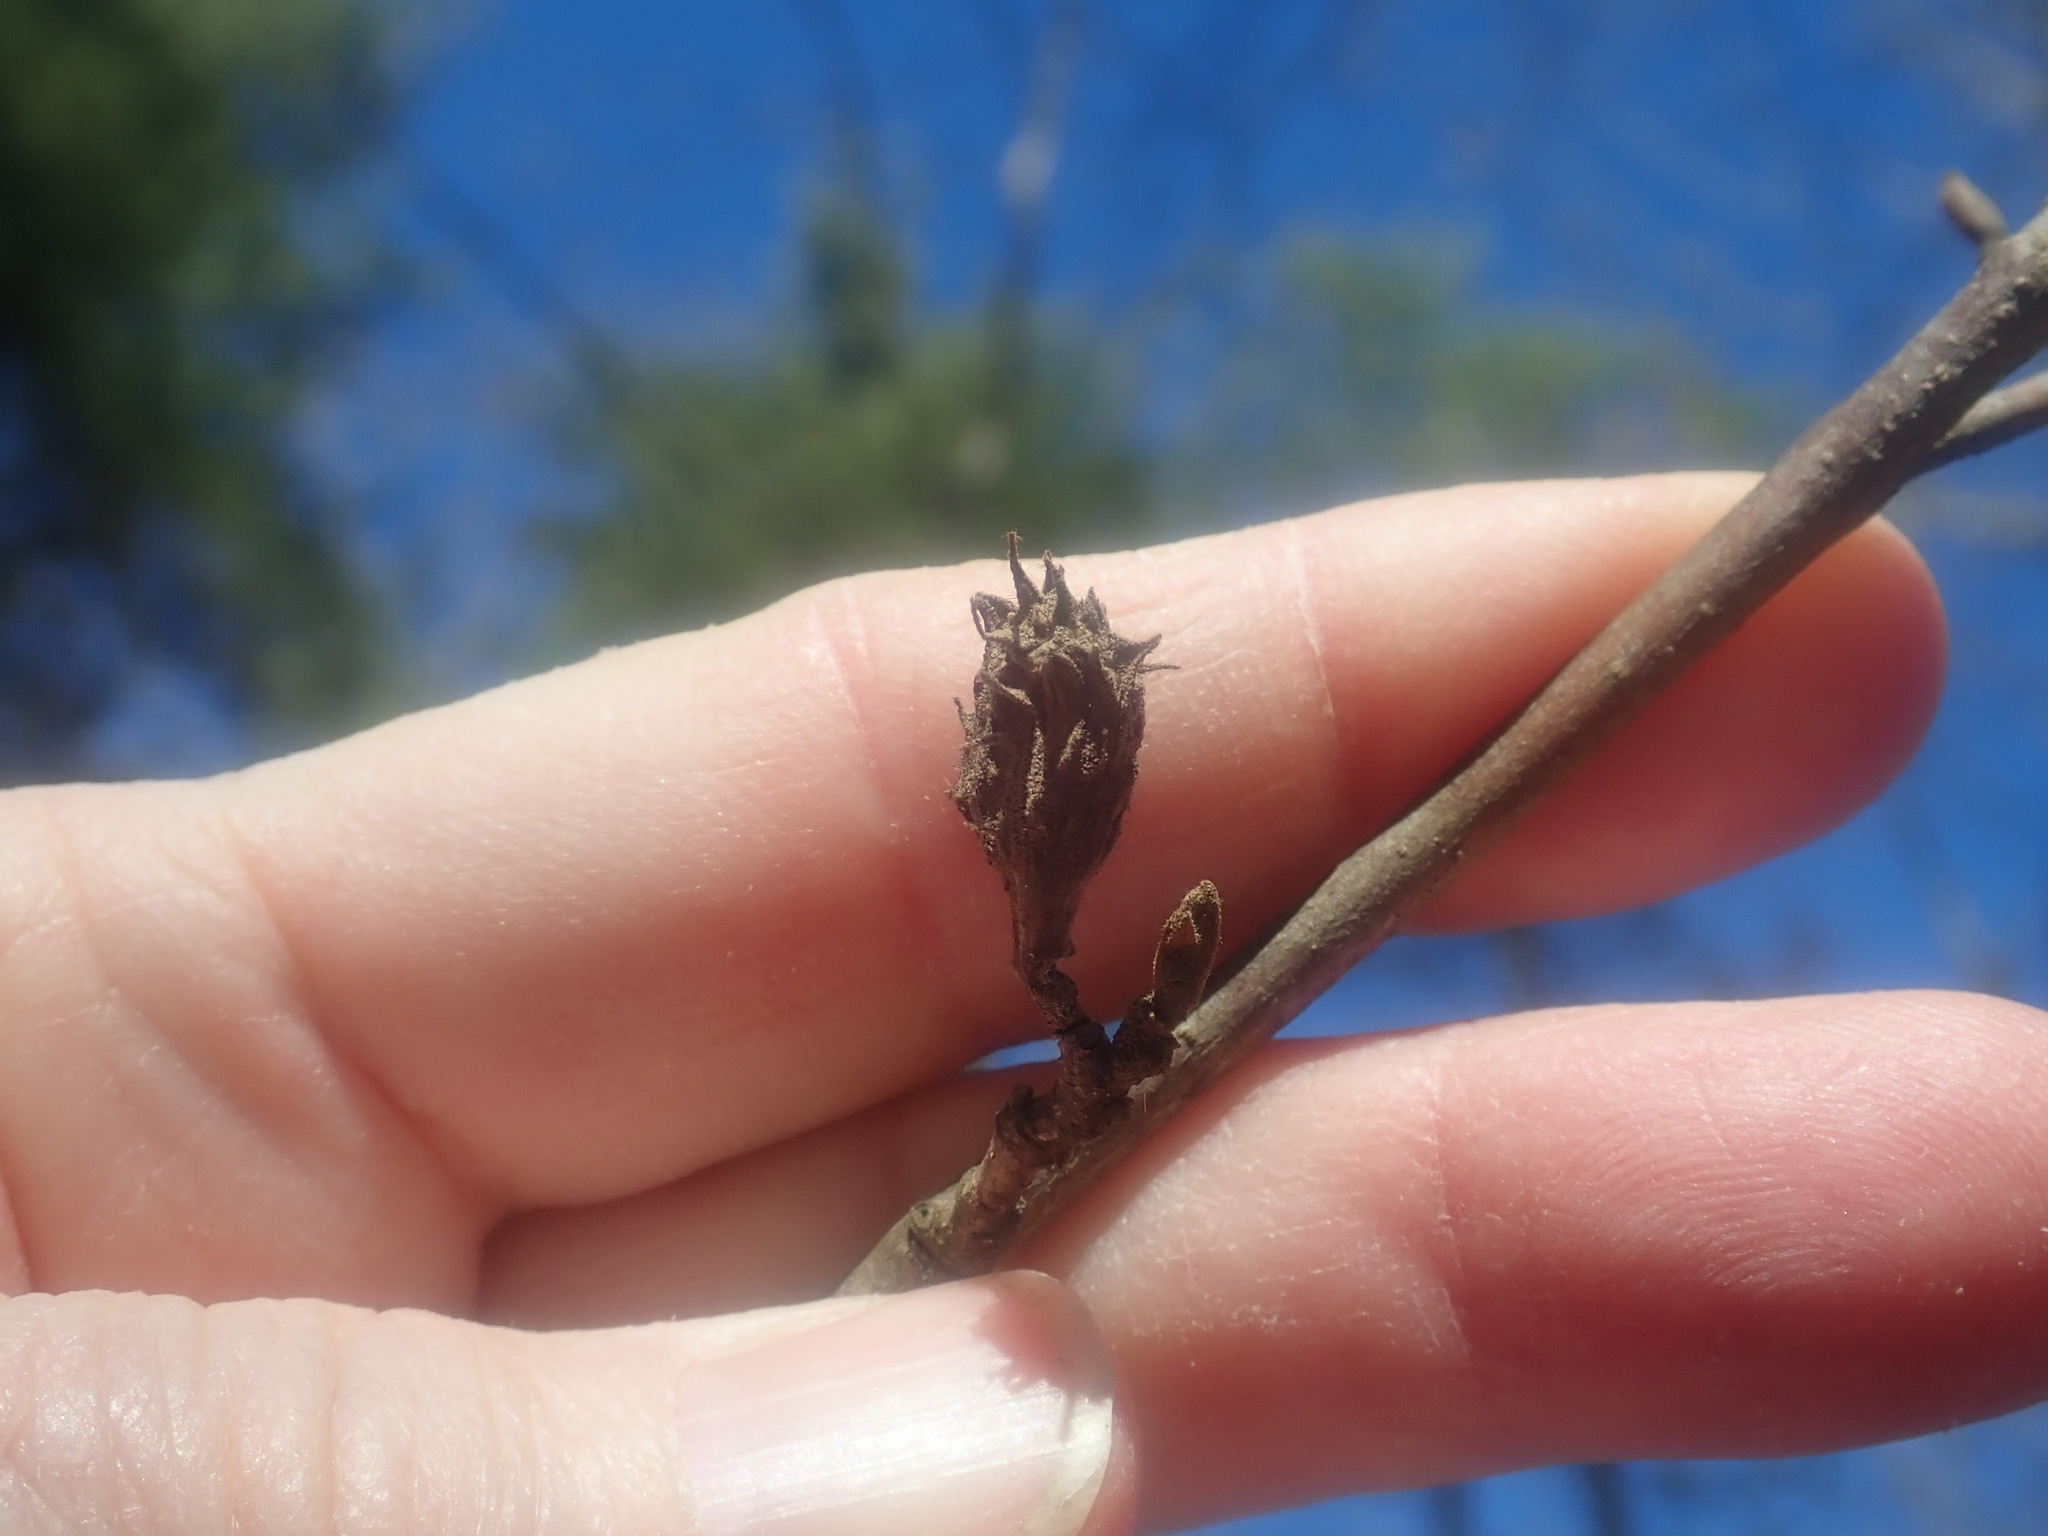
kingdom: Animalia
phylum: Arthropoda
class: Insecta
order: Hemiptera
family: Aphididae
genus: Hamamelistes
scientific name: Hamamelistes spinosus
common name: Witch hazel gall aphid
